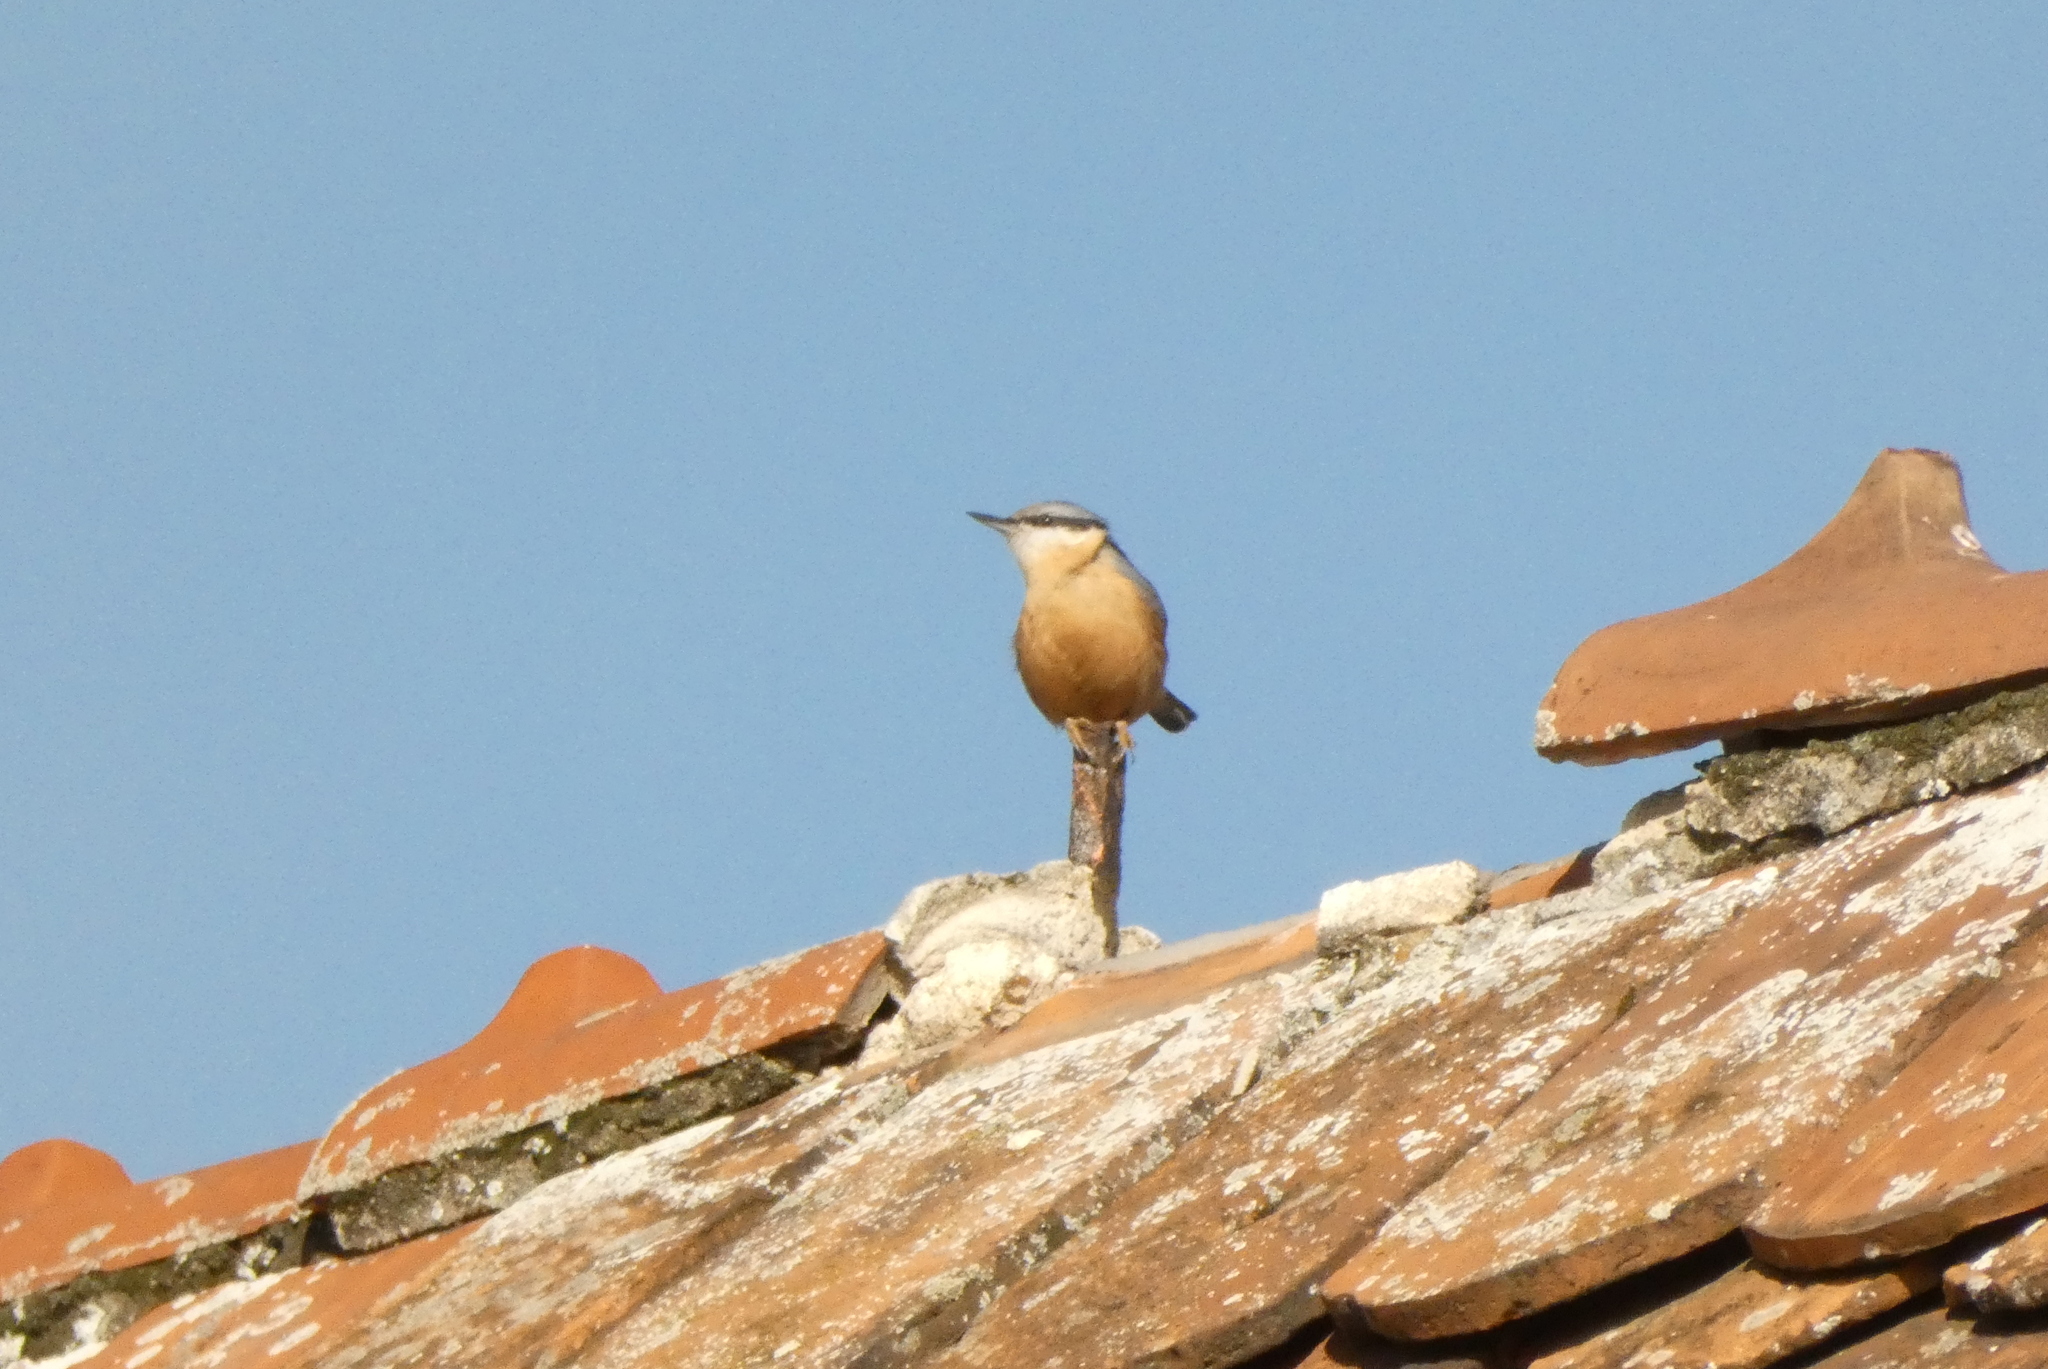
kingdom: Animalia
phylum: Chordata
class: Aves
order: Passeriformes
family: Sittidae
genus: Sitta
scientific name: Sitta europaea
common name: Eurasian nuthatch
